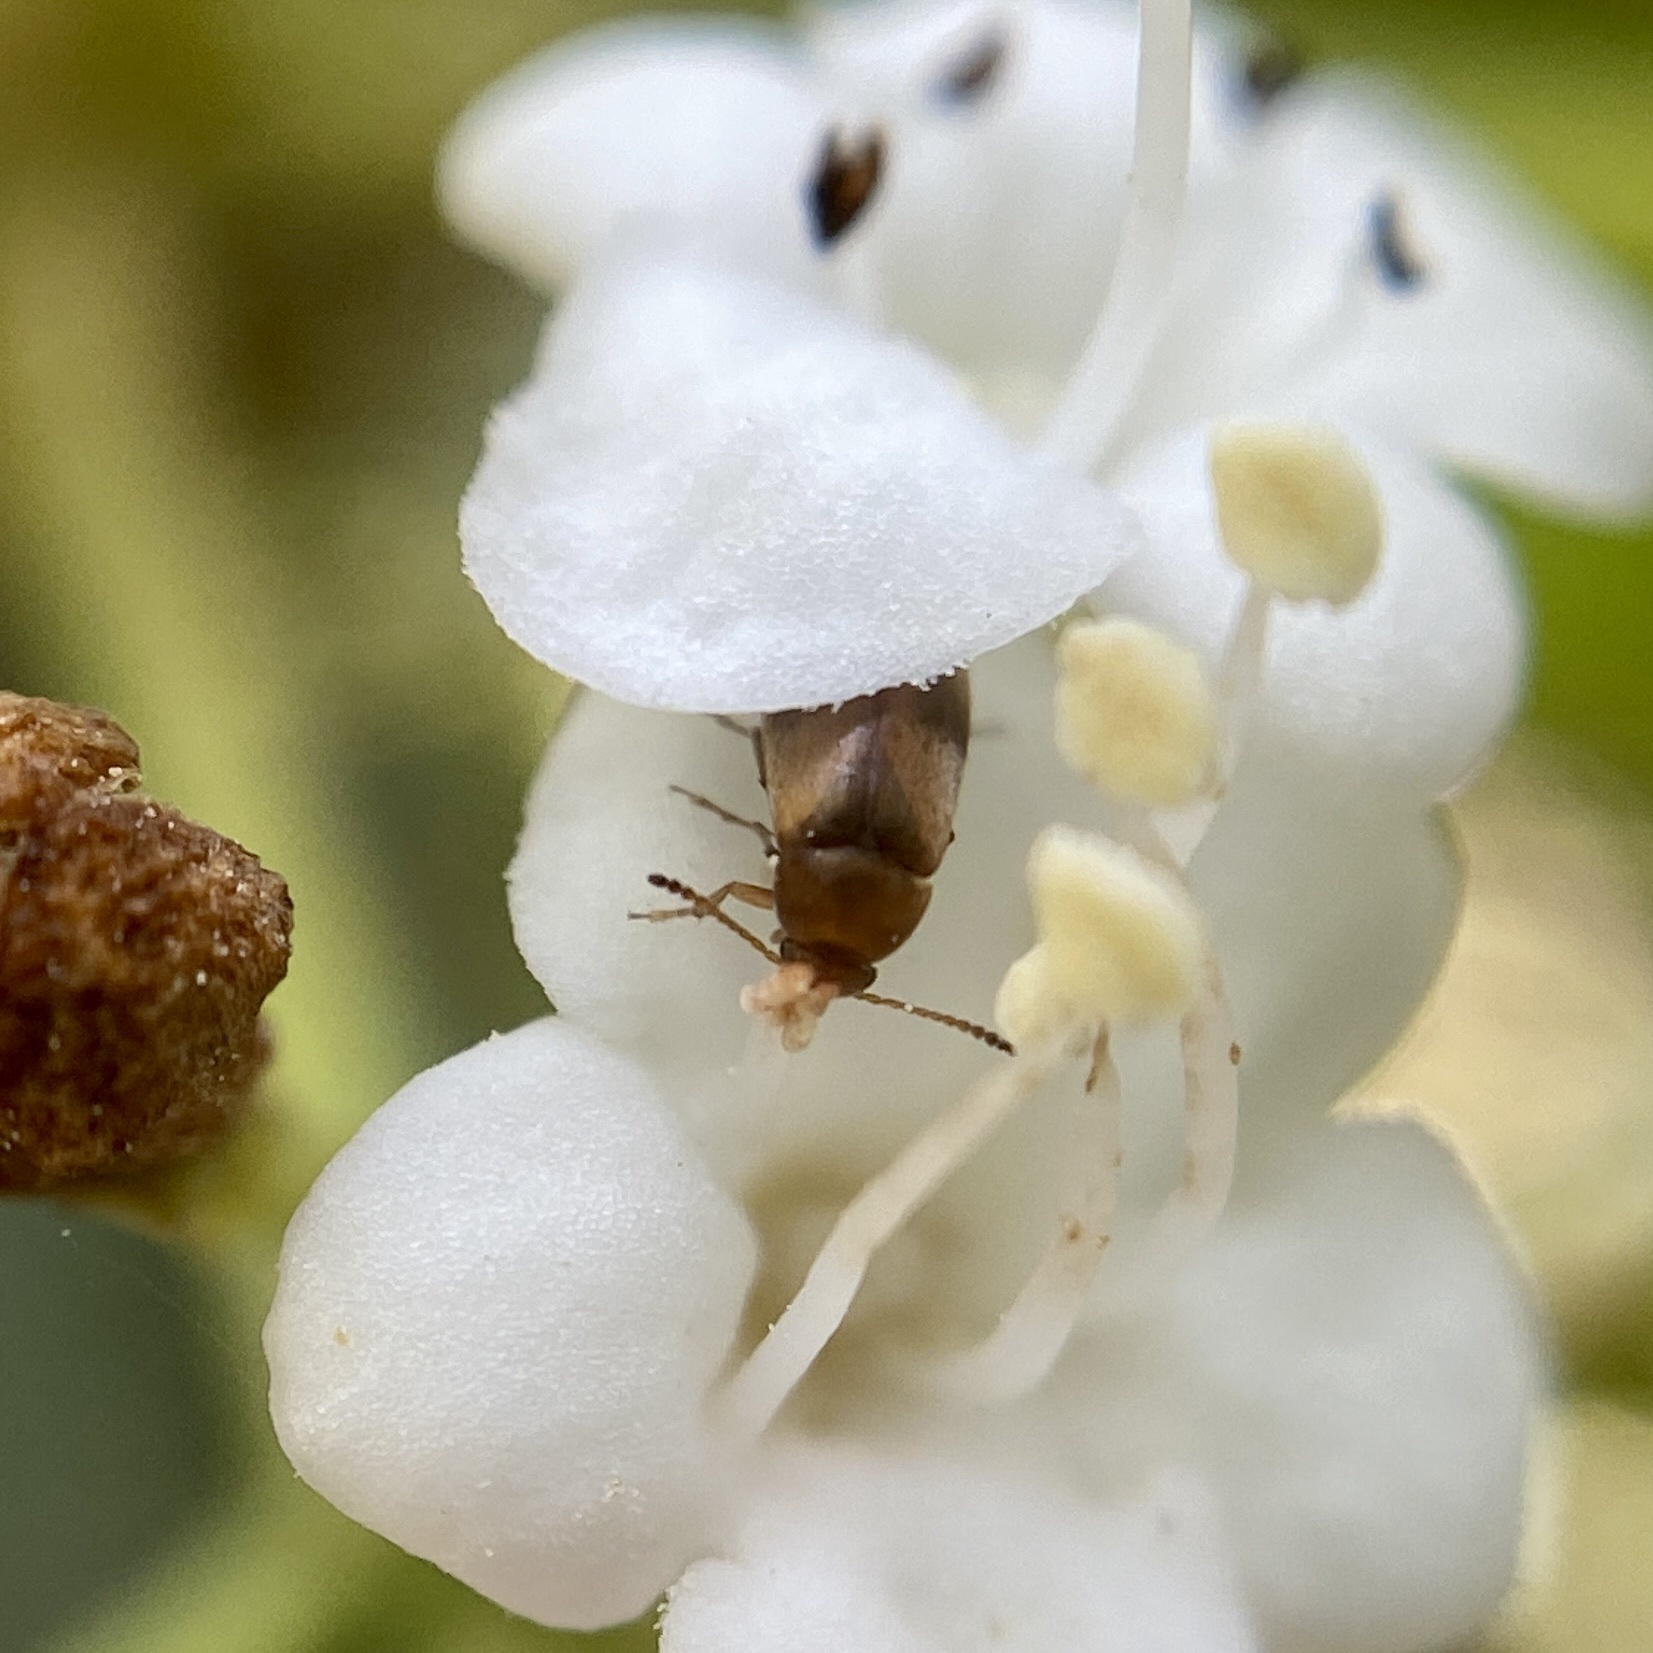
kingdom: Animalia
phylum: Arthropoda
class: Insecta
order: Coleoptera
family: Scraptiidae
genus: Anaspis
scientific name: Anaspis maculata
